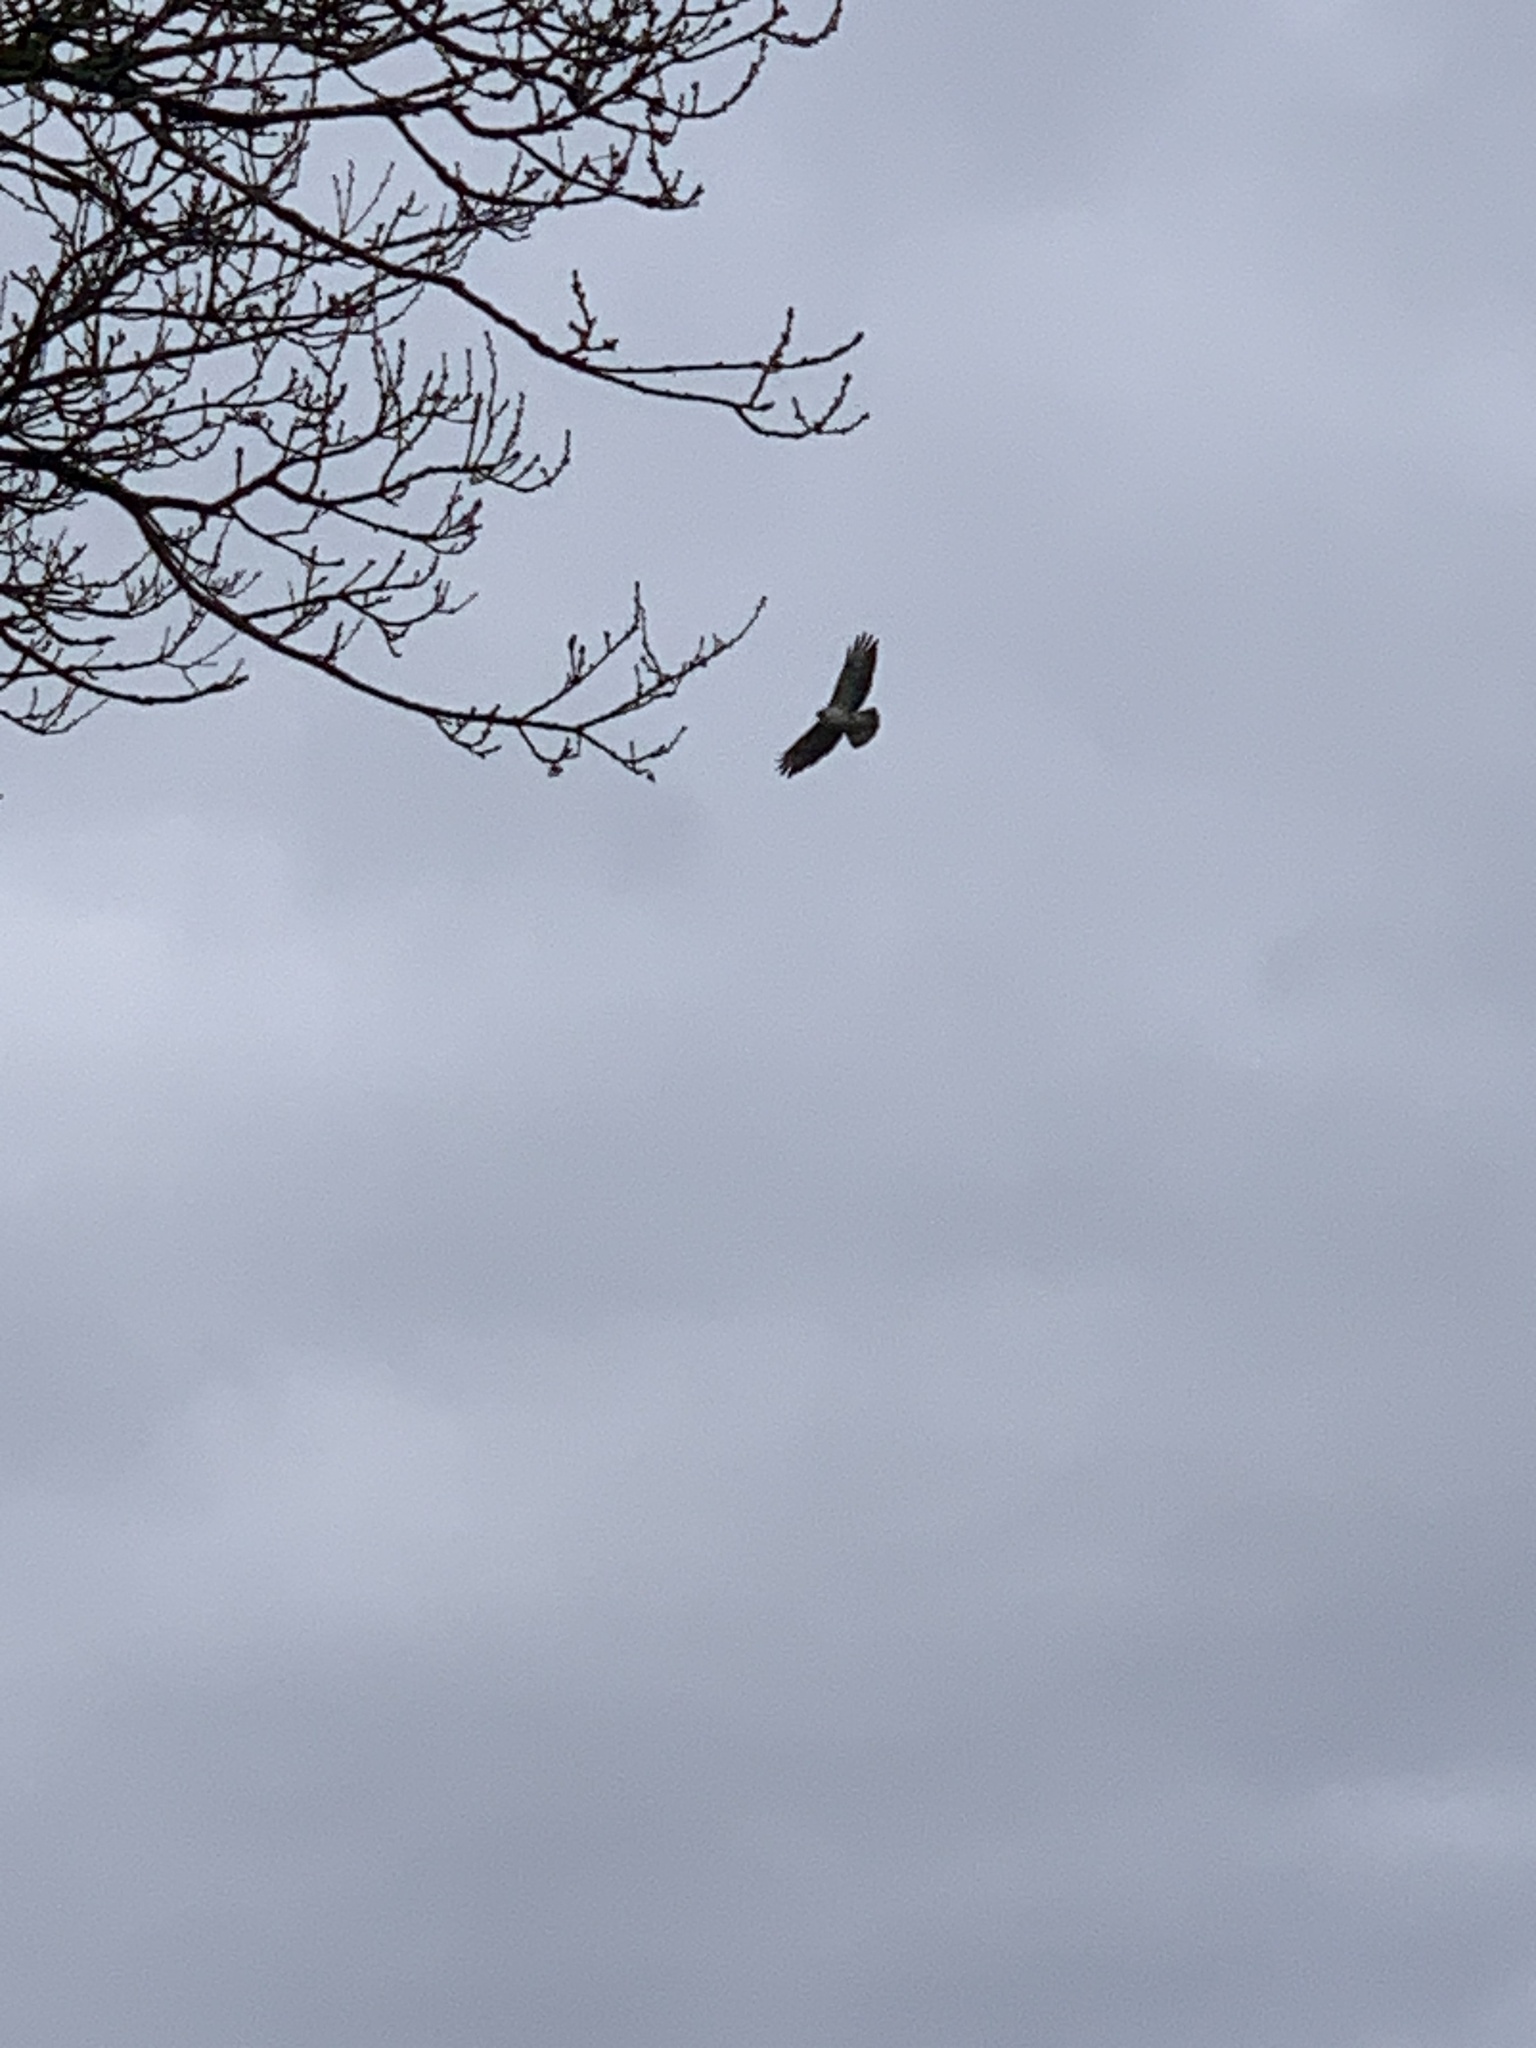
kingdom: Animalia
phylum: Chordata
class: Aves
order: Accipitriformes
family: Accipitridae
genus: Buteo
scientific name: Buteo buteo
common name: Common buzzard
